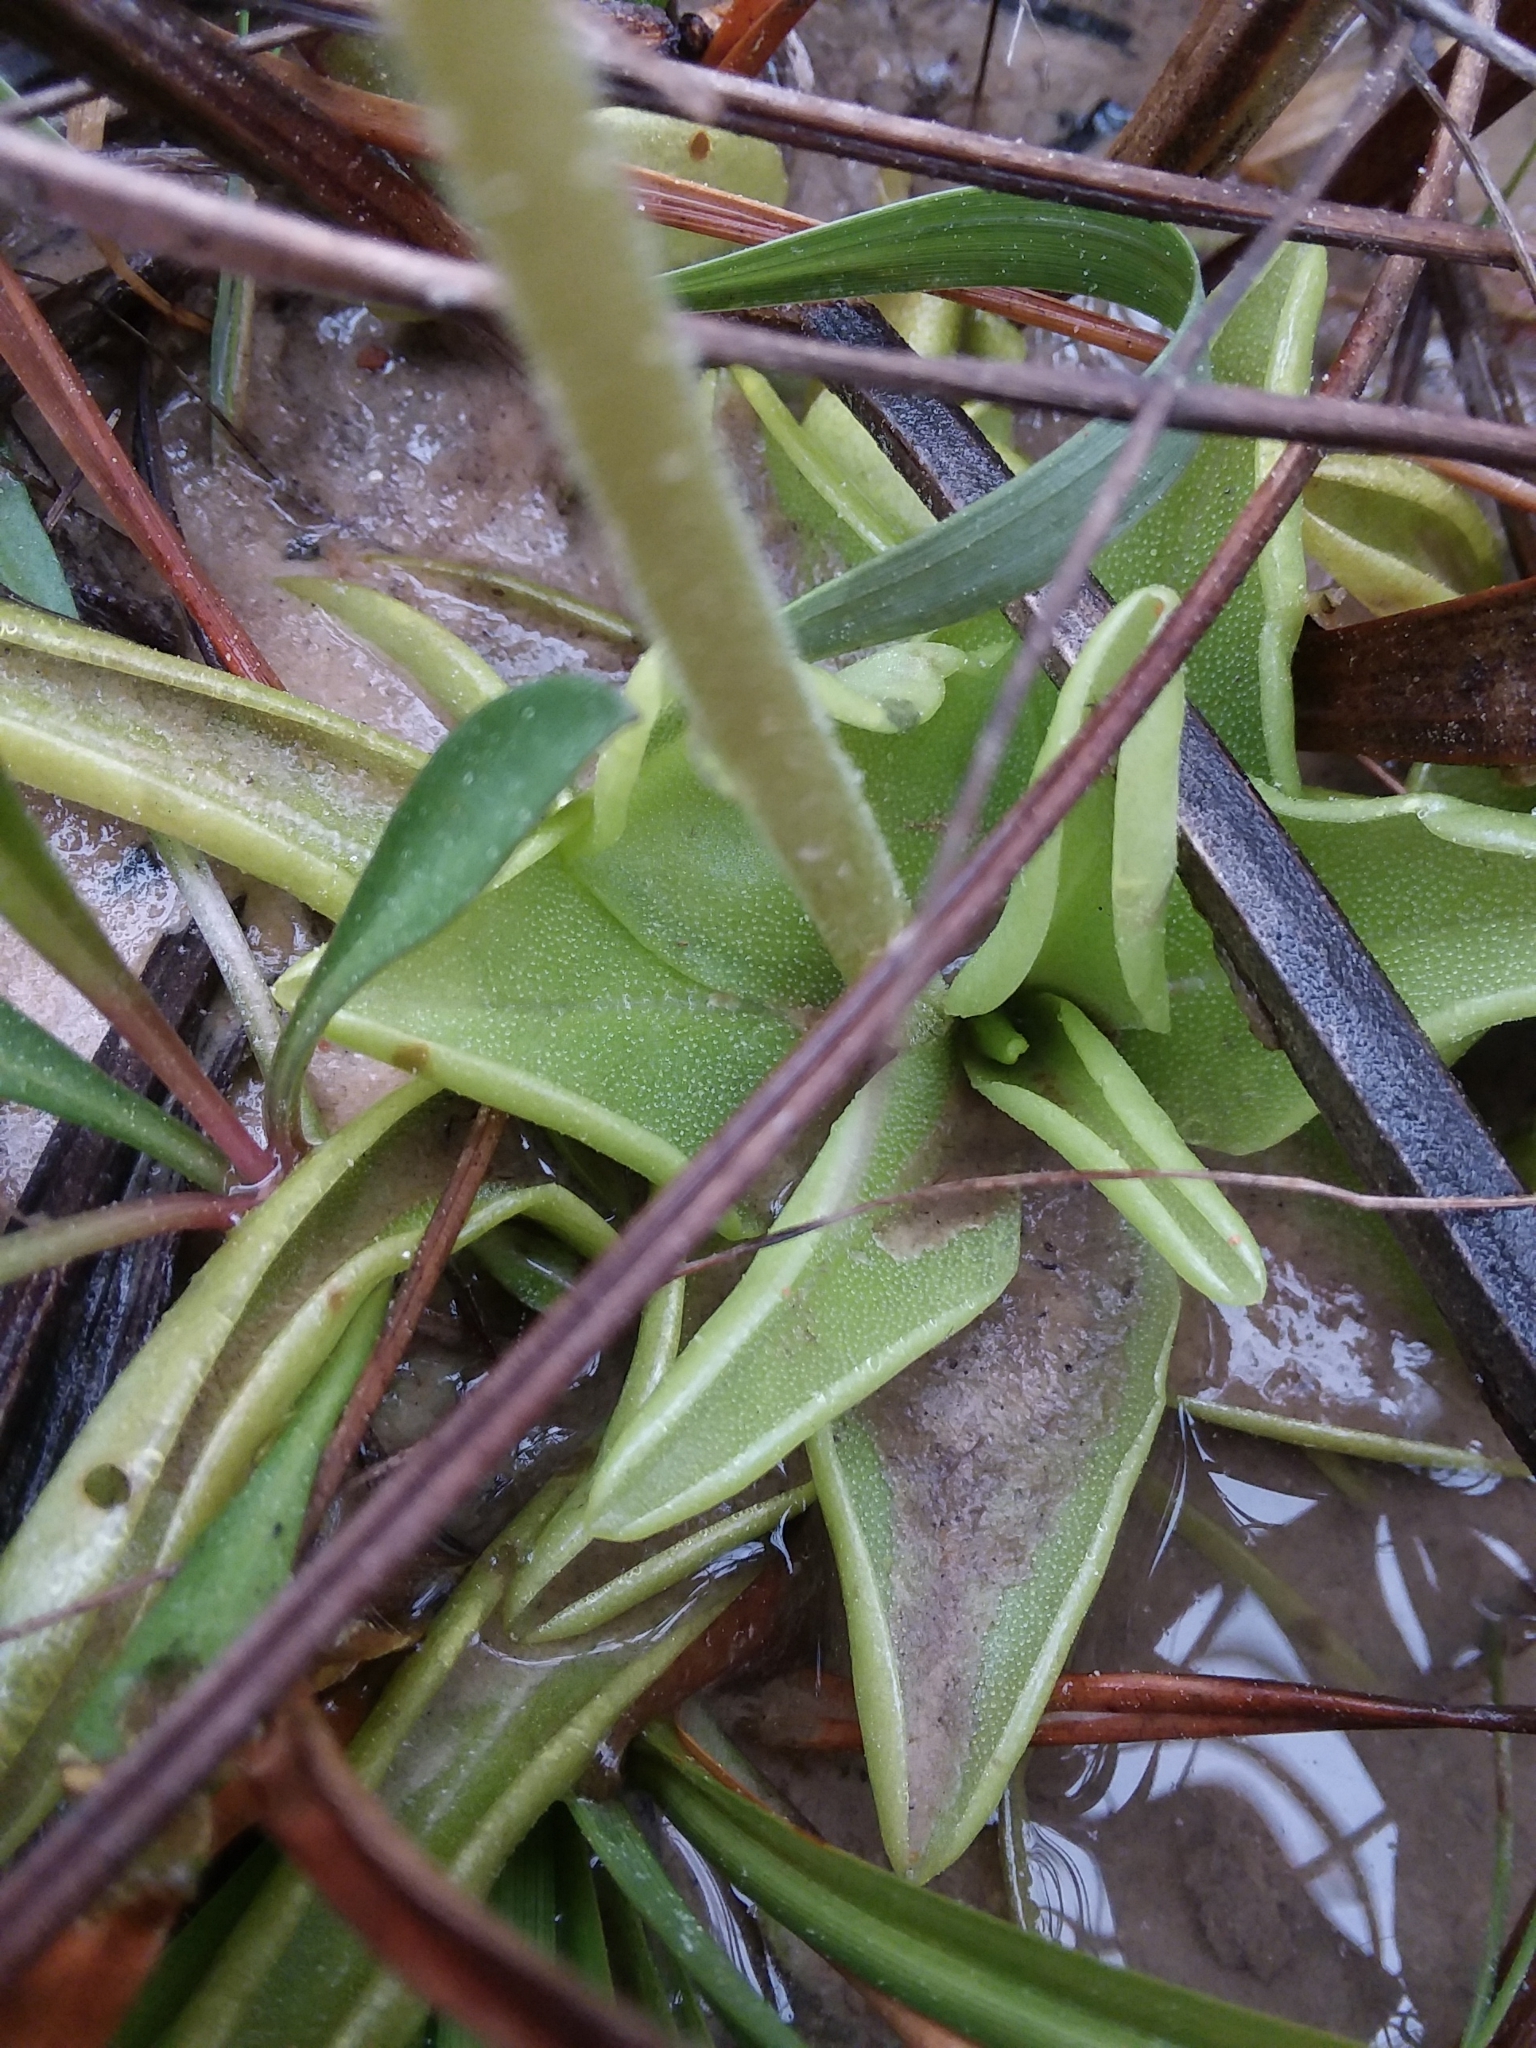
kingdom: Plantae
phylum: Tracheophyta
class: Magnoliopsida
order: Lamiales
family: Lentibulariaceae
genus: Pinguicula
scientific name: Pinguicula lutea
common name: Yellow butterwort
